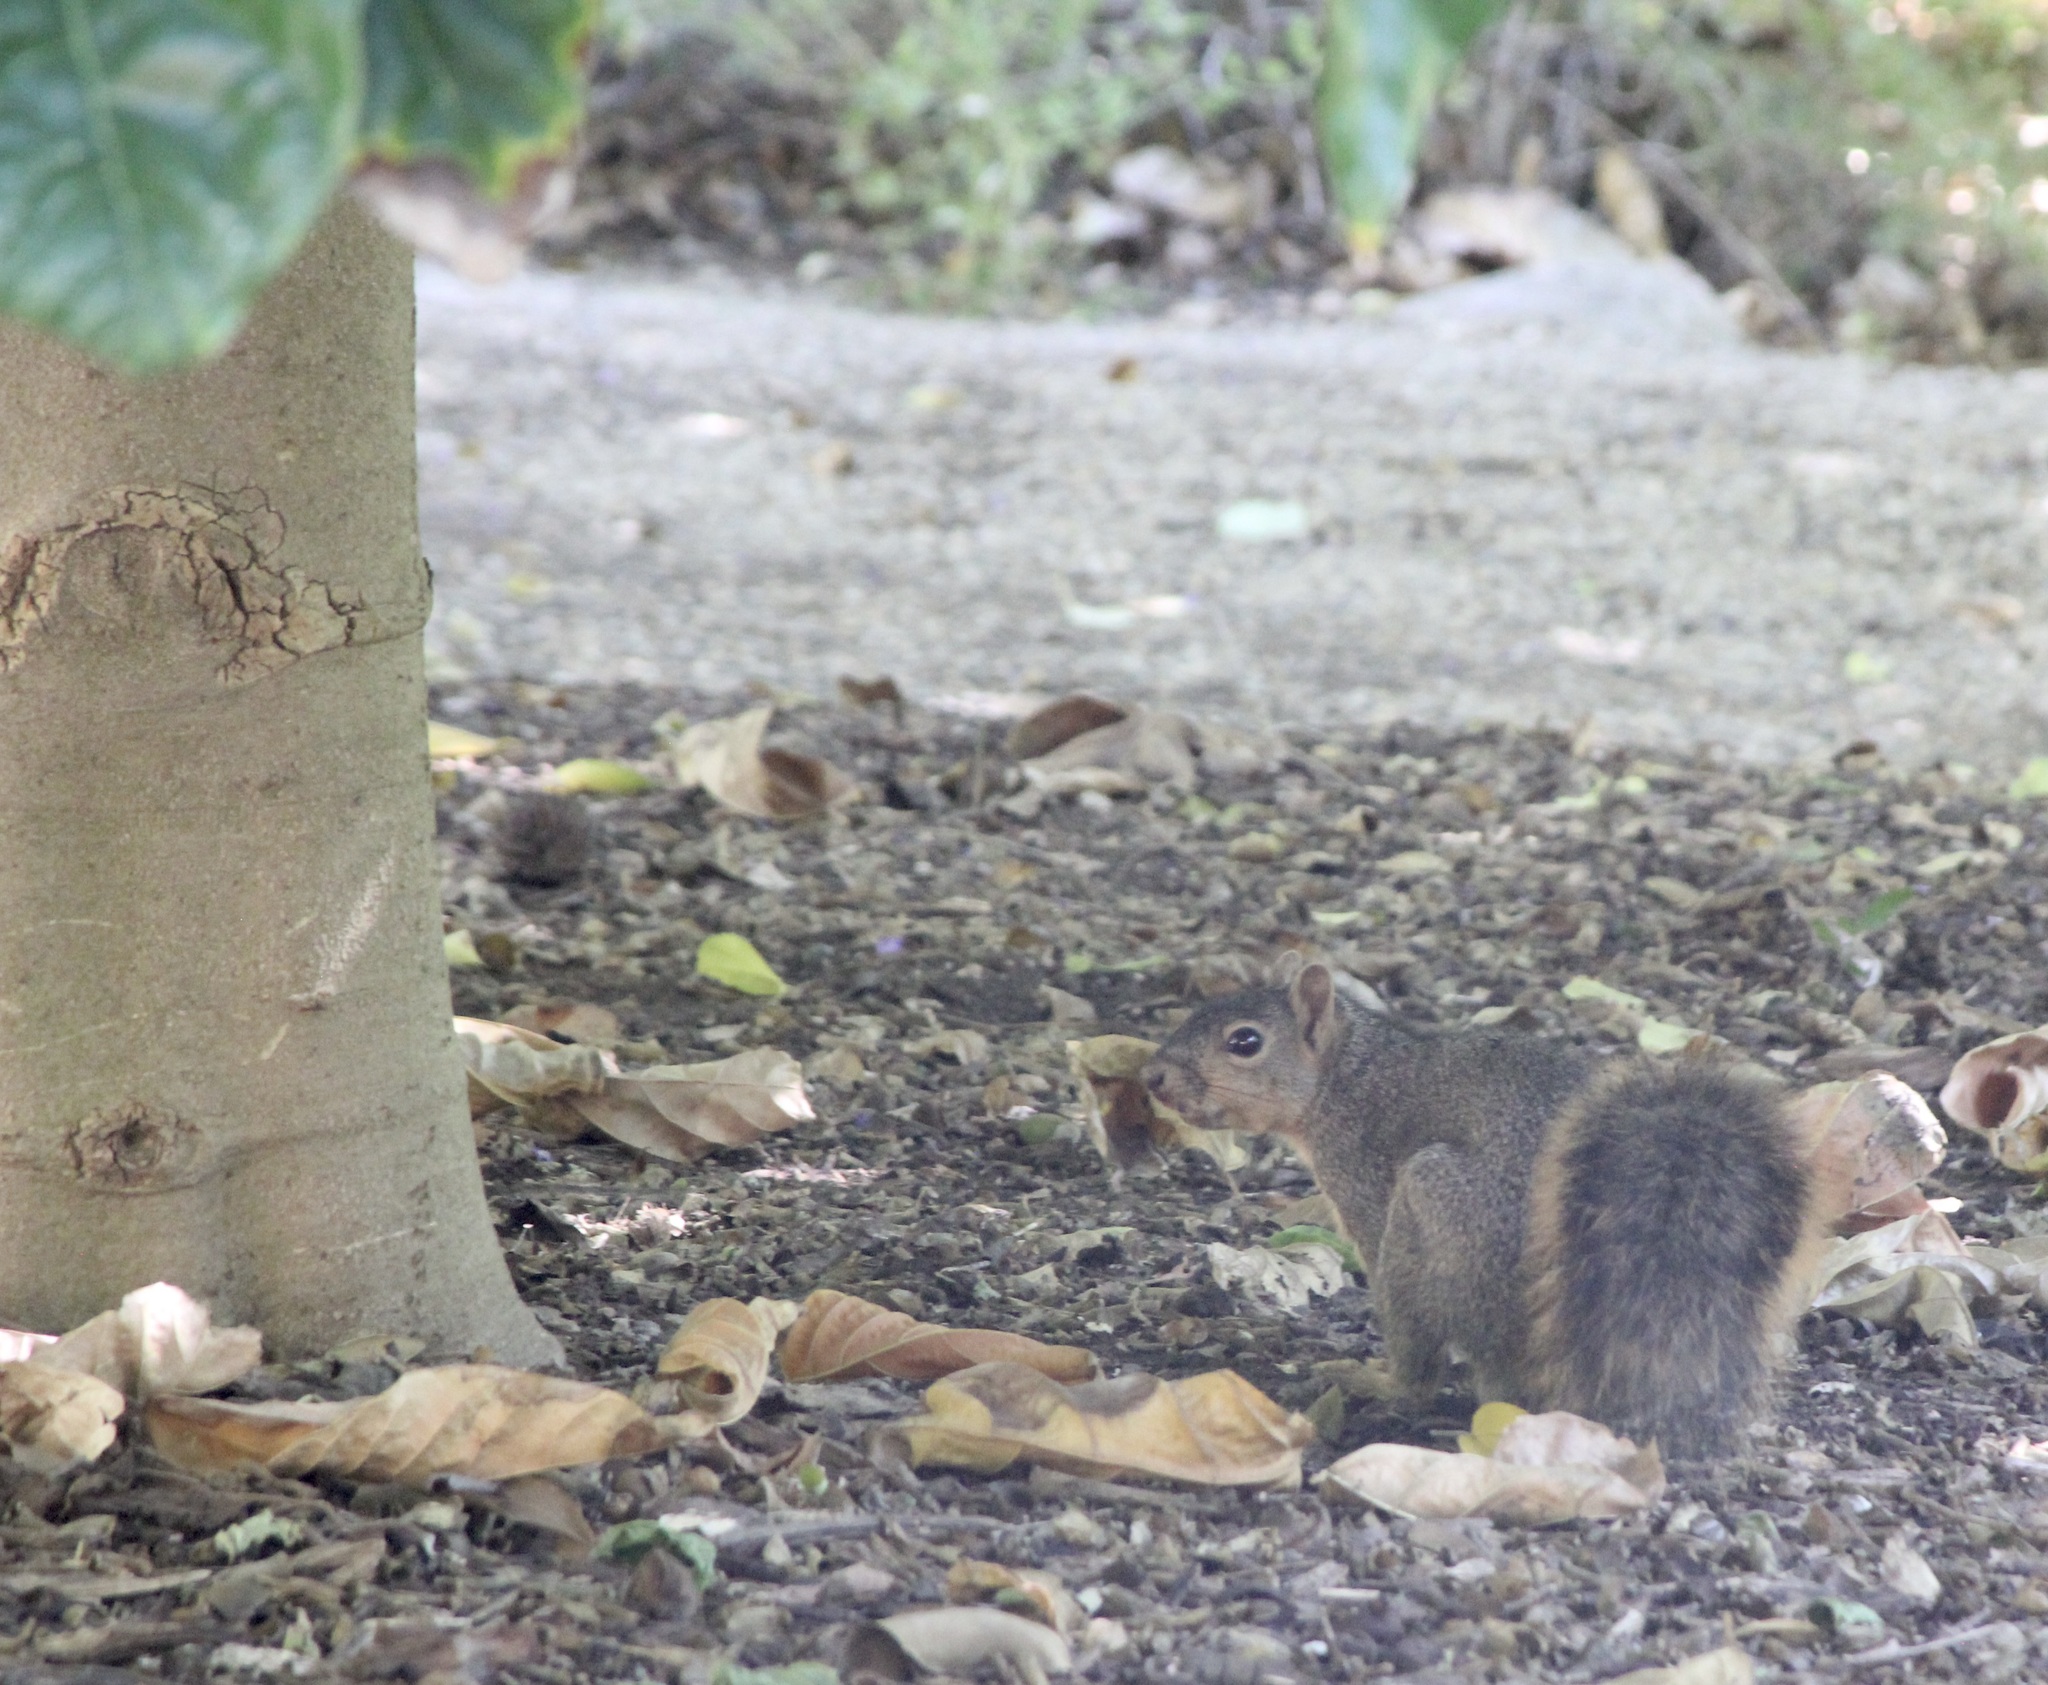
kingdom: Animalia
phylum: Chordata
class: Mammalia
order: Rodentia
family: Sciuridae
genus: Sciurus
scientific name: Sciurus niger
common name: Fox squirrel
